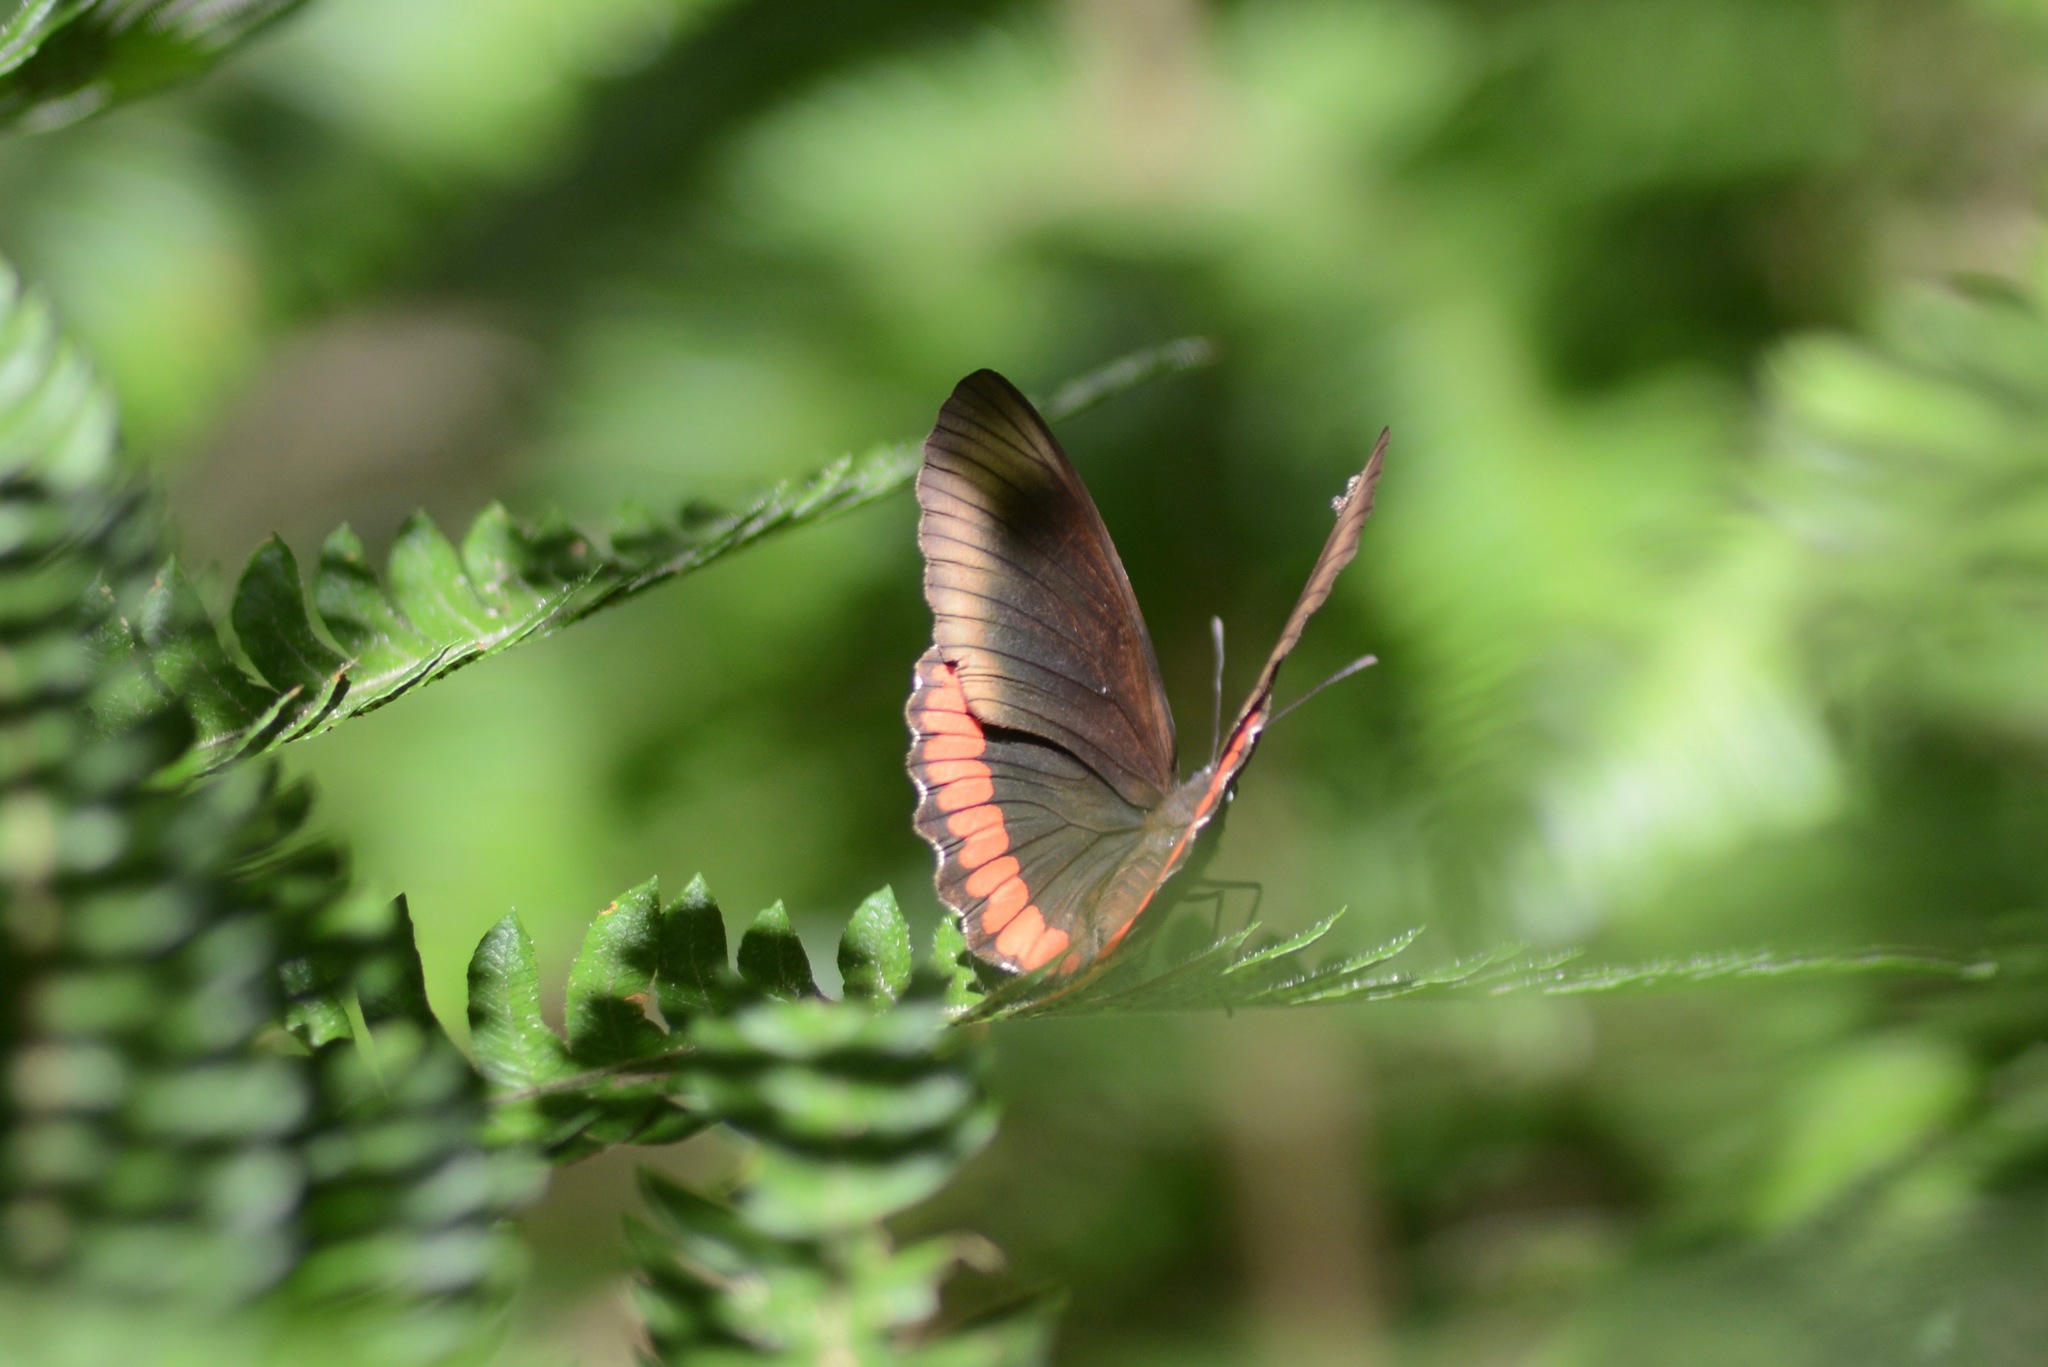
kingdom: Animalia
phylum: Arthropoda
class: Insecta
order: Lepidoptera
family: Sesiidae
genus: Sesia
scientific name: Sesia Biblis hyperia
